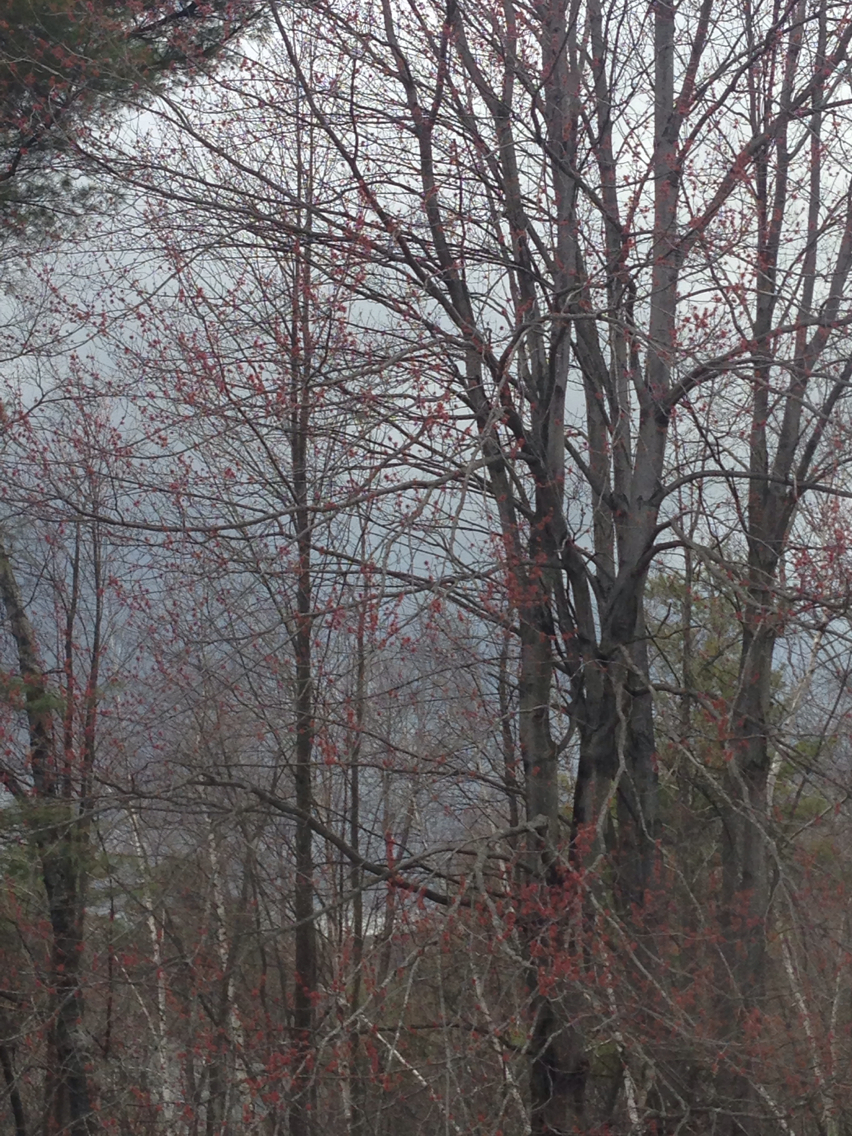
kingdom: Plantae
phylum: Tracheophyta
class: Magnoliopsida
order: Sapindales
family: Sapindaceae
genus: Acer
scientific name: Acer rubrum
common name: Red maple
